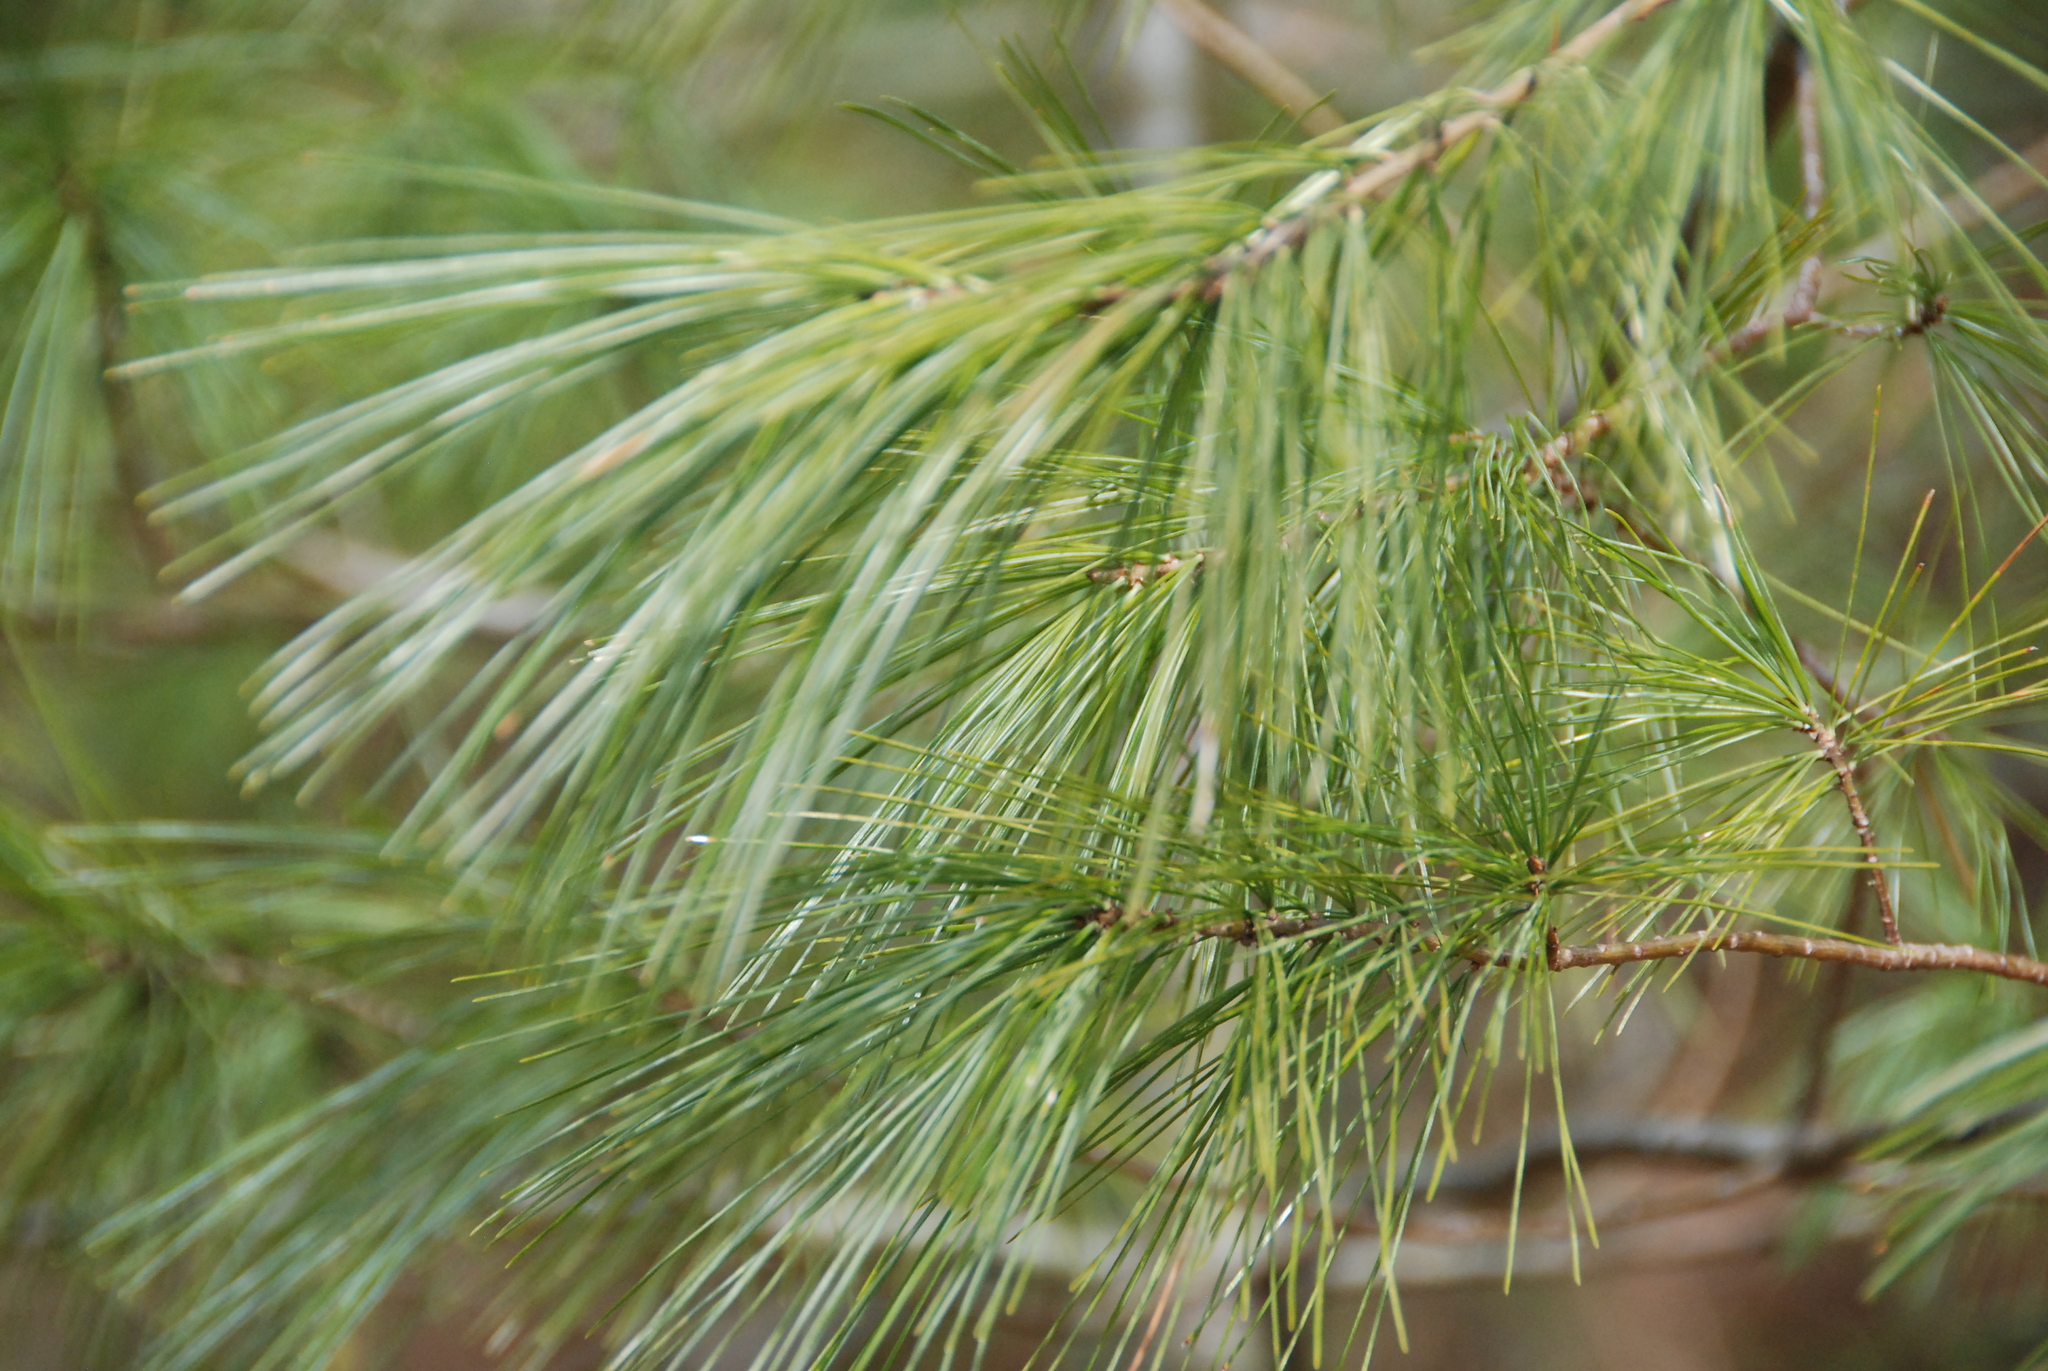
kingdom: Plantae
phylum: Tracheophyta
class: Pinopsida
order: Pinales
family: Pinaceae
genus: Pinus
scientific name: Pinus strobus
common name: Weymouth pine
